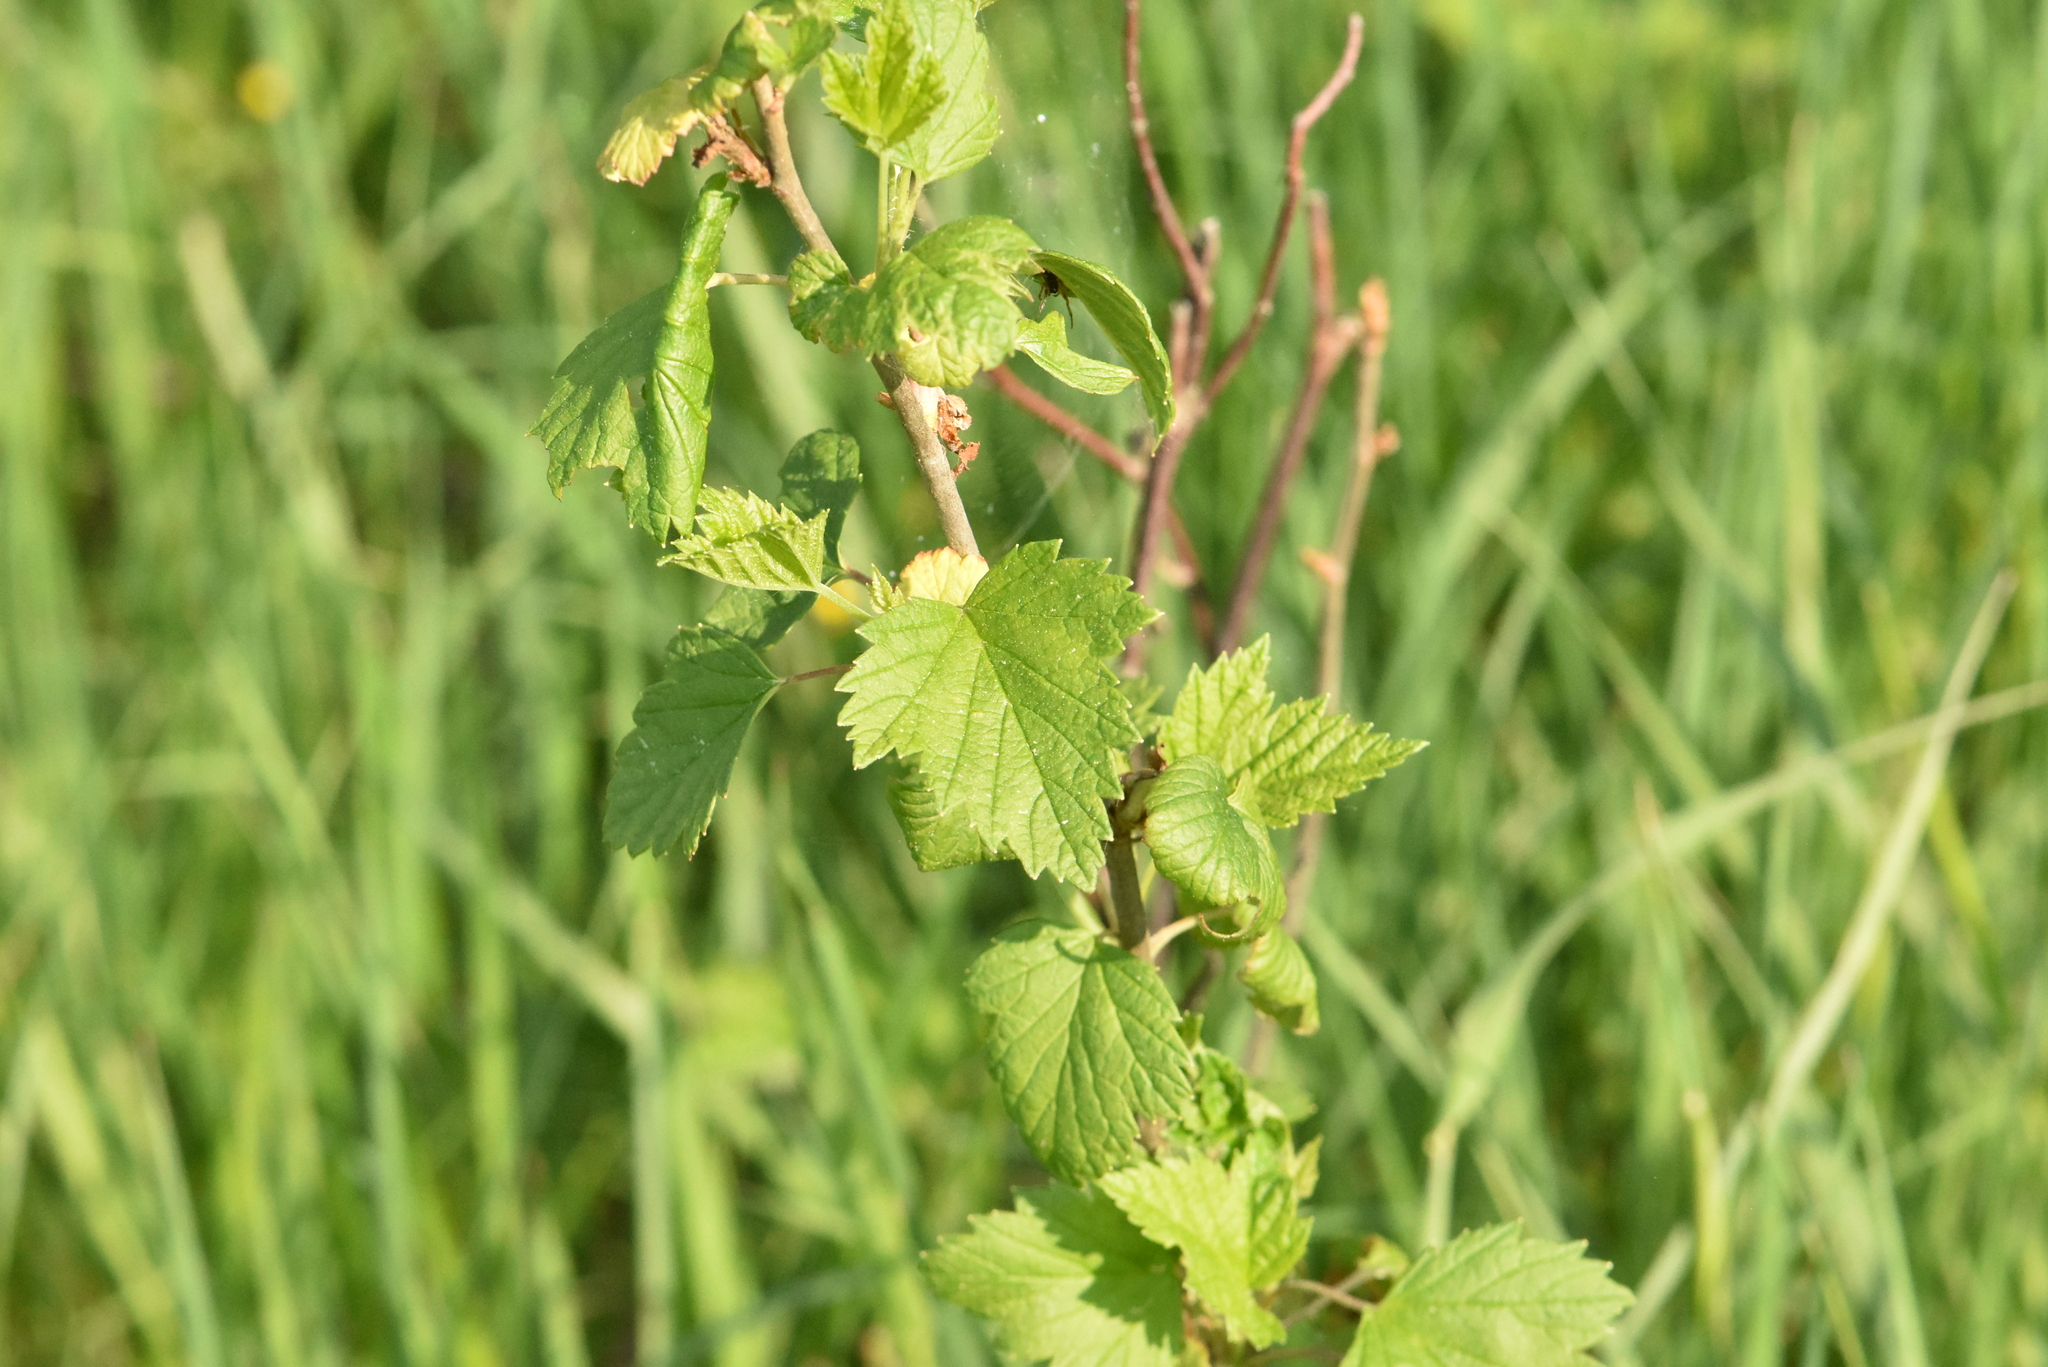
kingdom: Plantae
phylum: Tracheophyta
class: Magnoliopsida
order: Saxifragales
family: Grossulariaceae
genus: Ribes
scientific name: Ribes nigrum
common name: Black currant
